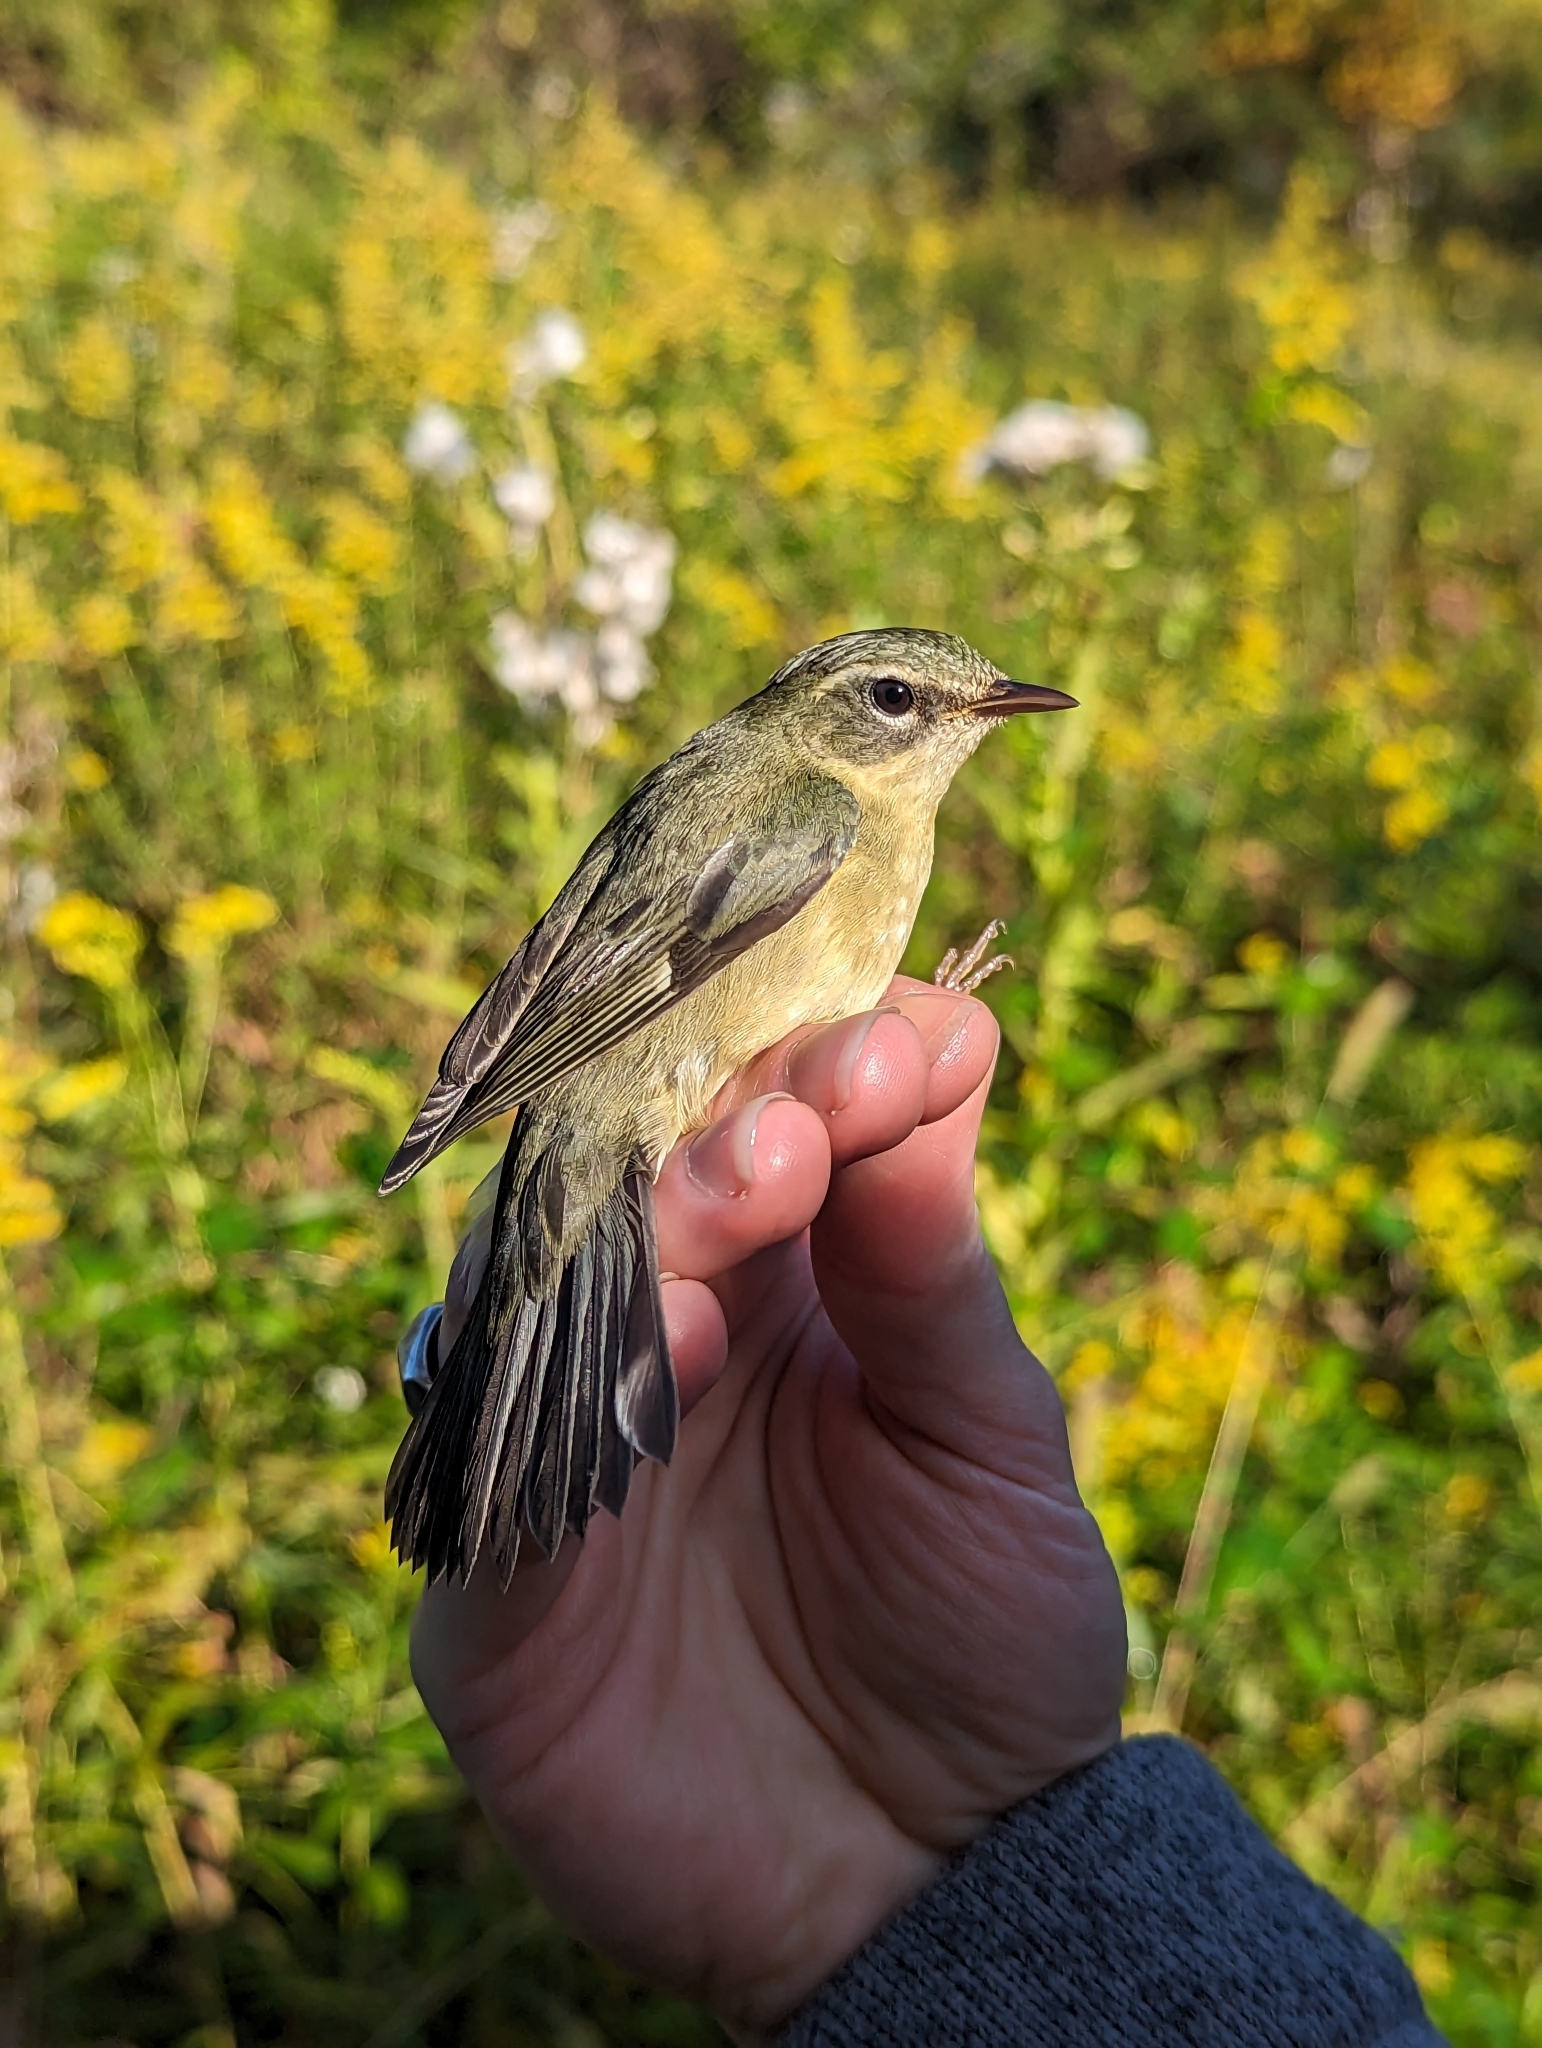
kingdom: Animalia
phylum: Chordata
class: Aves
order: Passeriformes
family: Parulidae
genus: Setophaga
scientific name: Setophaga caerulescens
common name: Black-throated blue warbler
